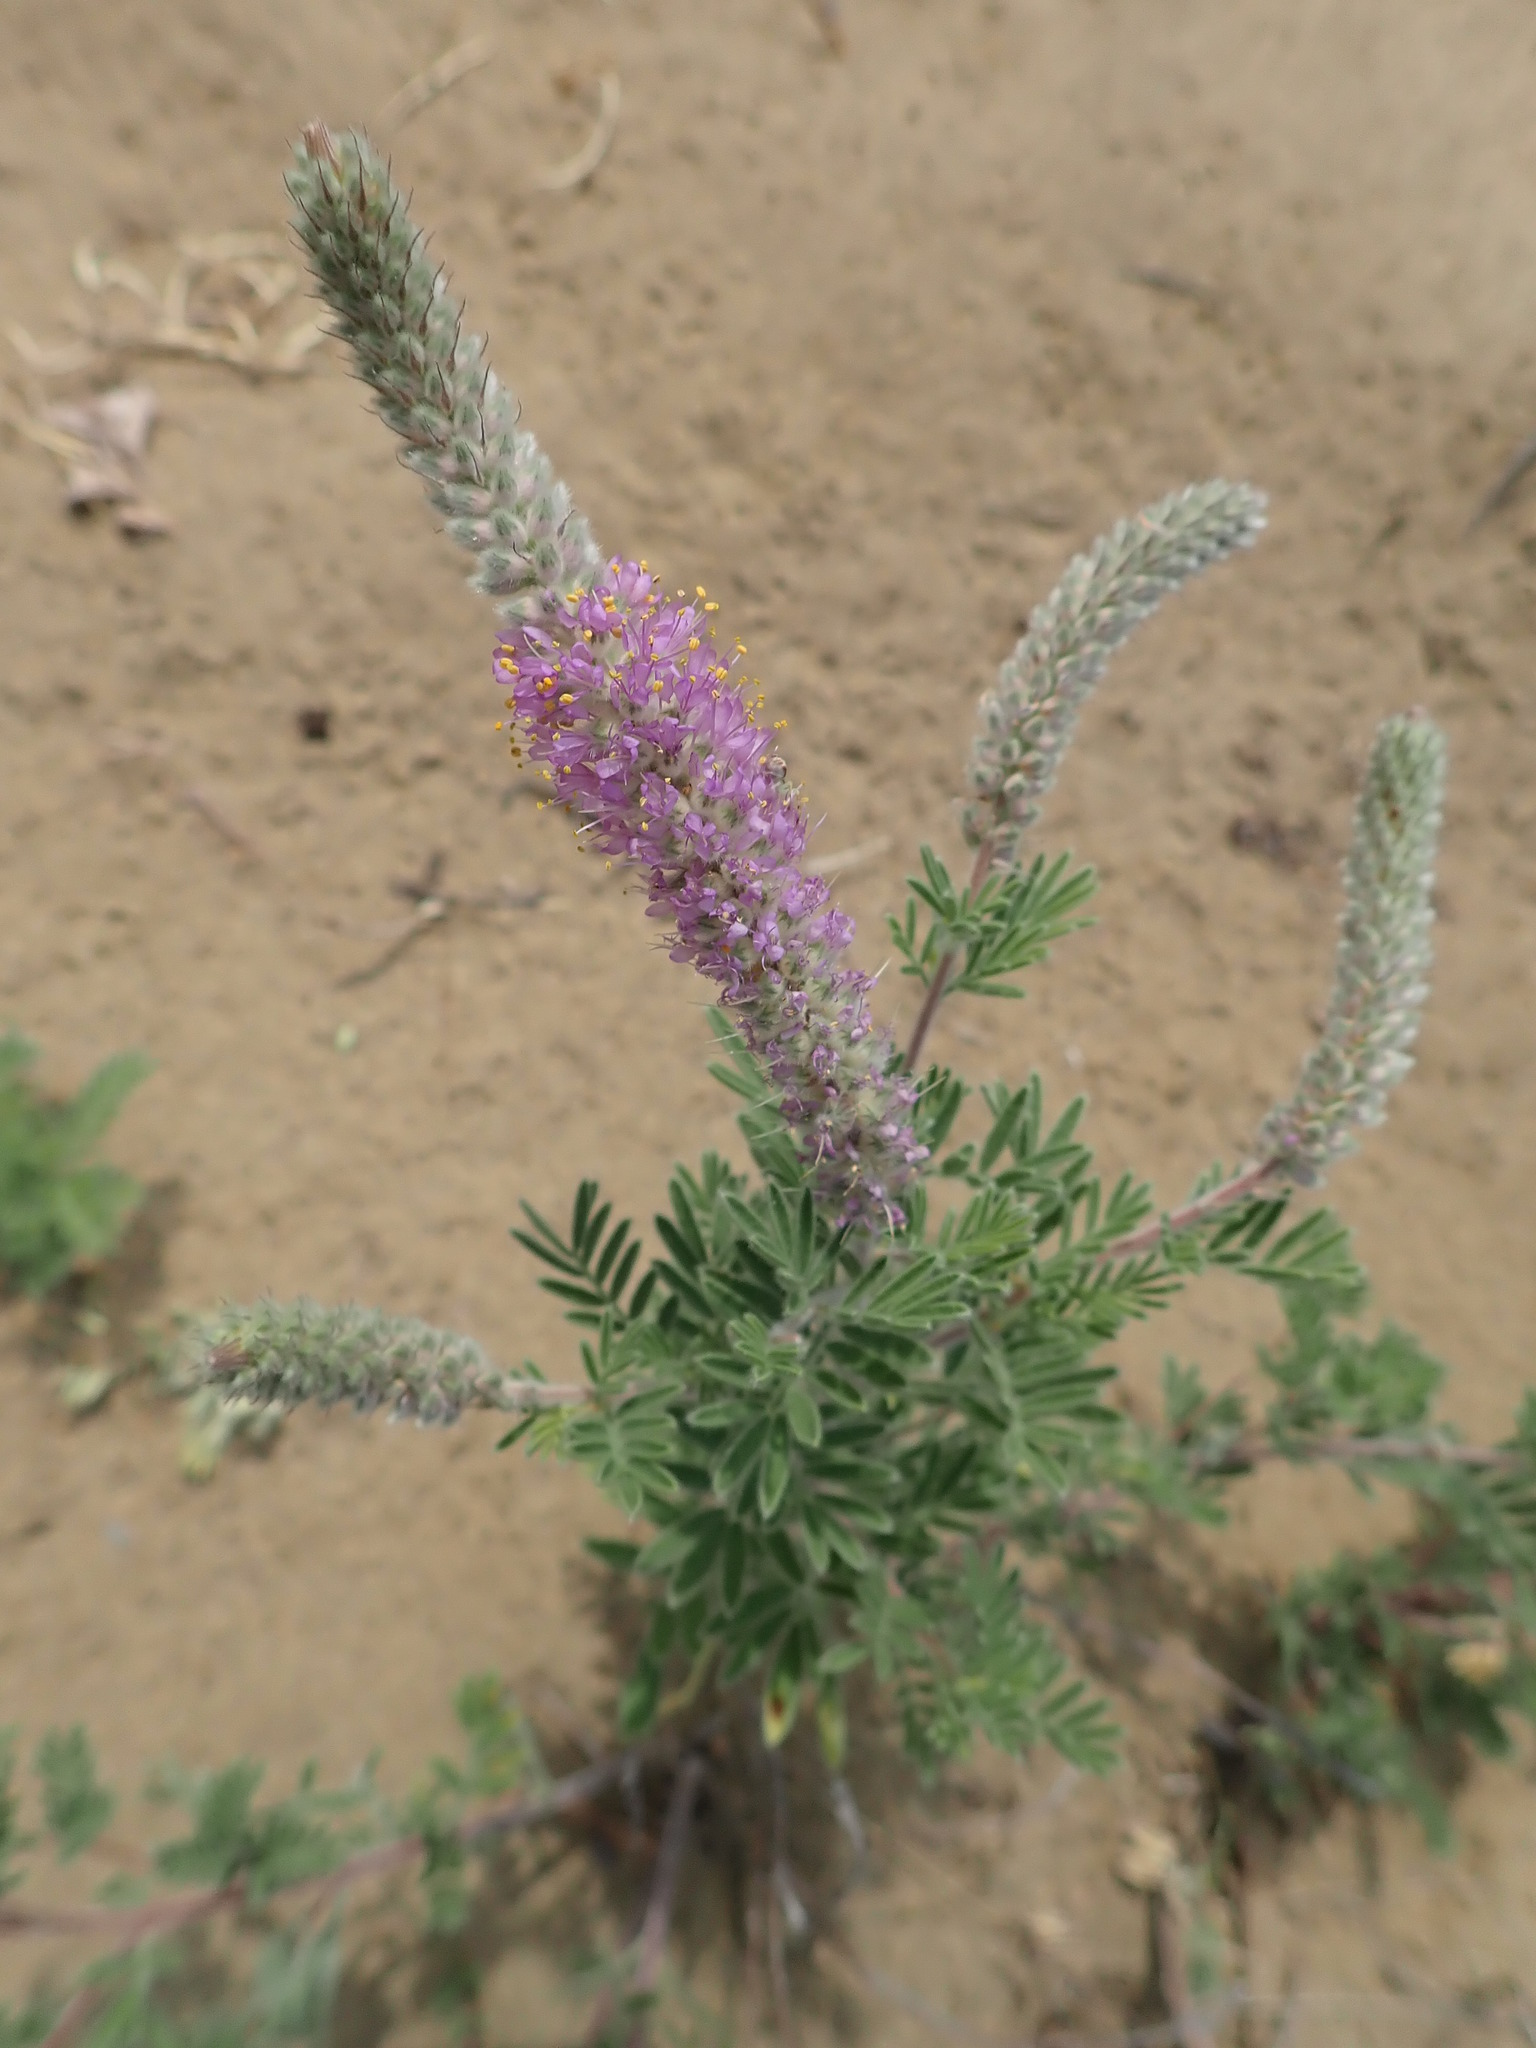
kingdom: Plantae
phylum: Tracheophyta
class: Magnoliopsida
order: Fabales
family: Fabaceae
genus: Dalea
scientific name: Dalea villosa
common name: Silky prairie-clover
